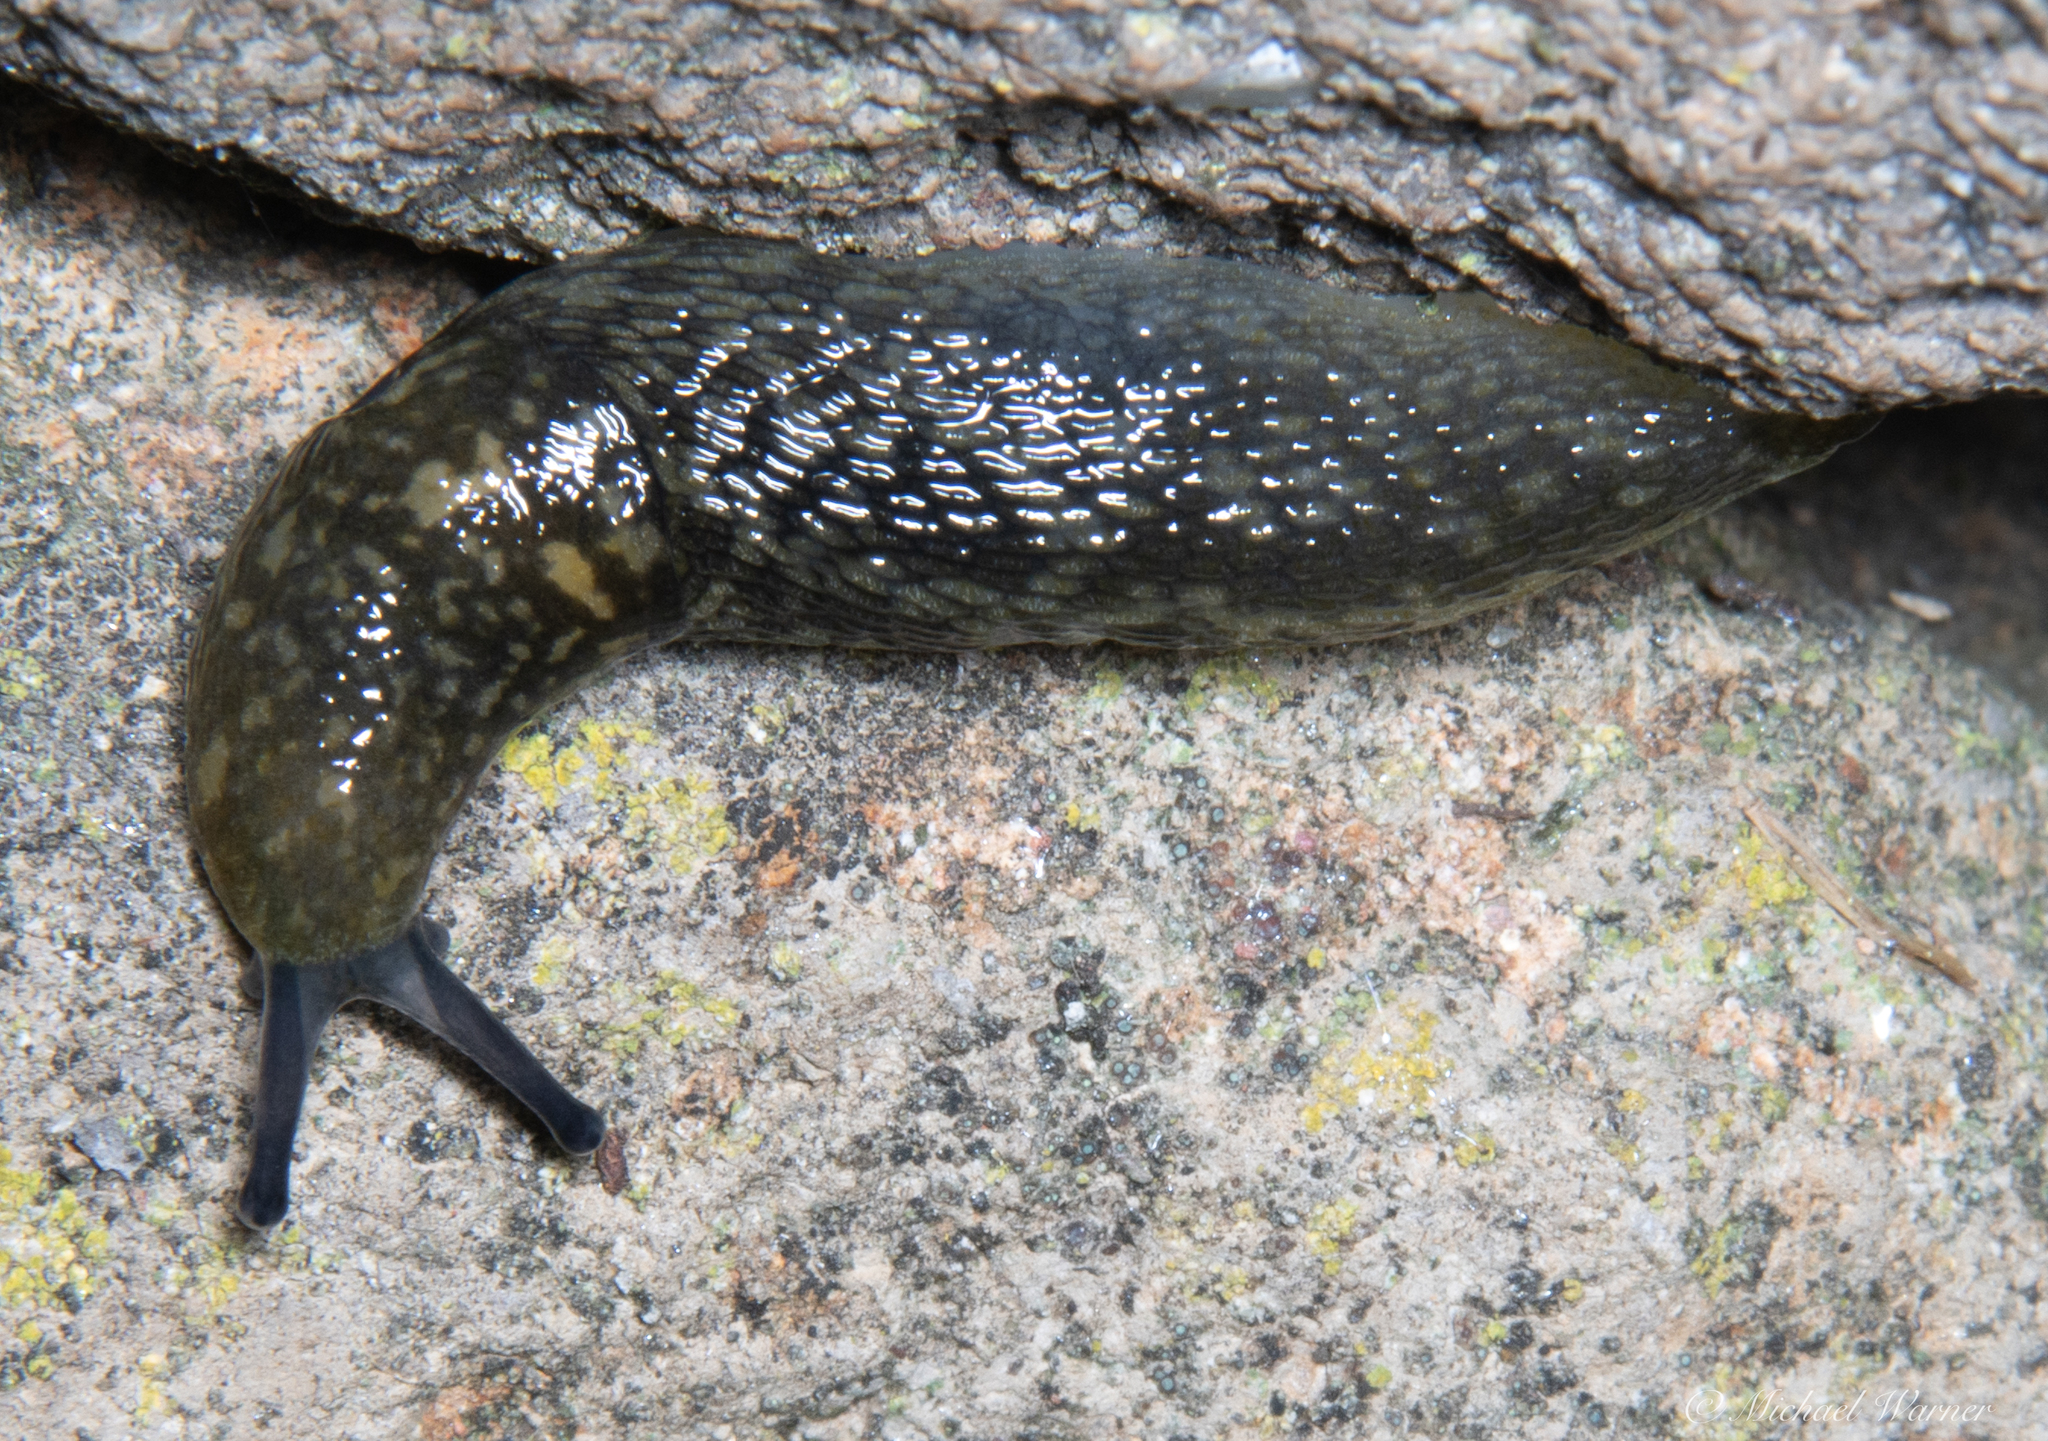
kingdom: Animalia
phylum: Mollusca
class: Gastropoda
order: Stylommatophora
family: Limacidae
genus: Limacus
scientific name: Limacus flavus
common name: Yellow gardenslug
